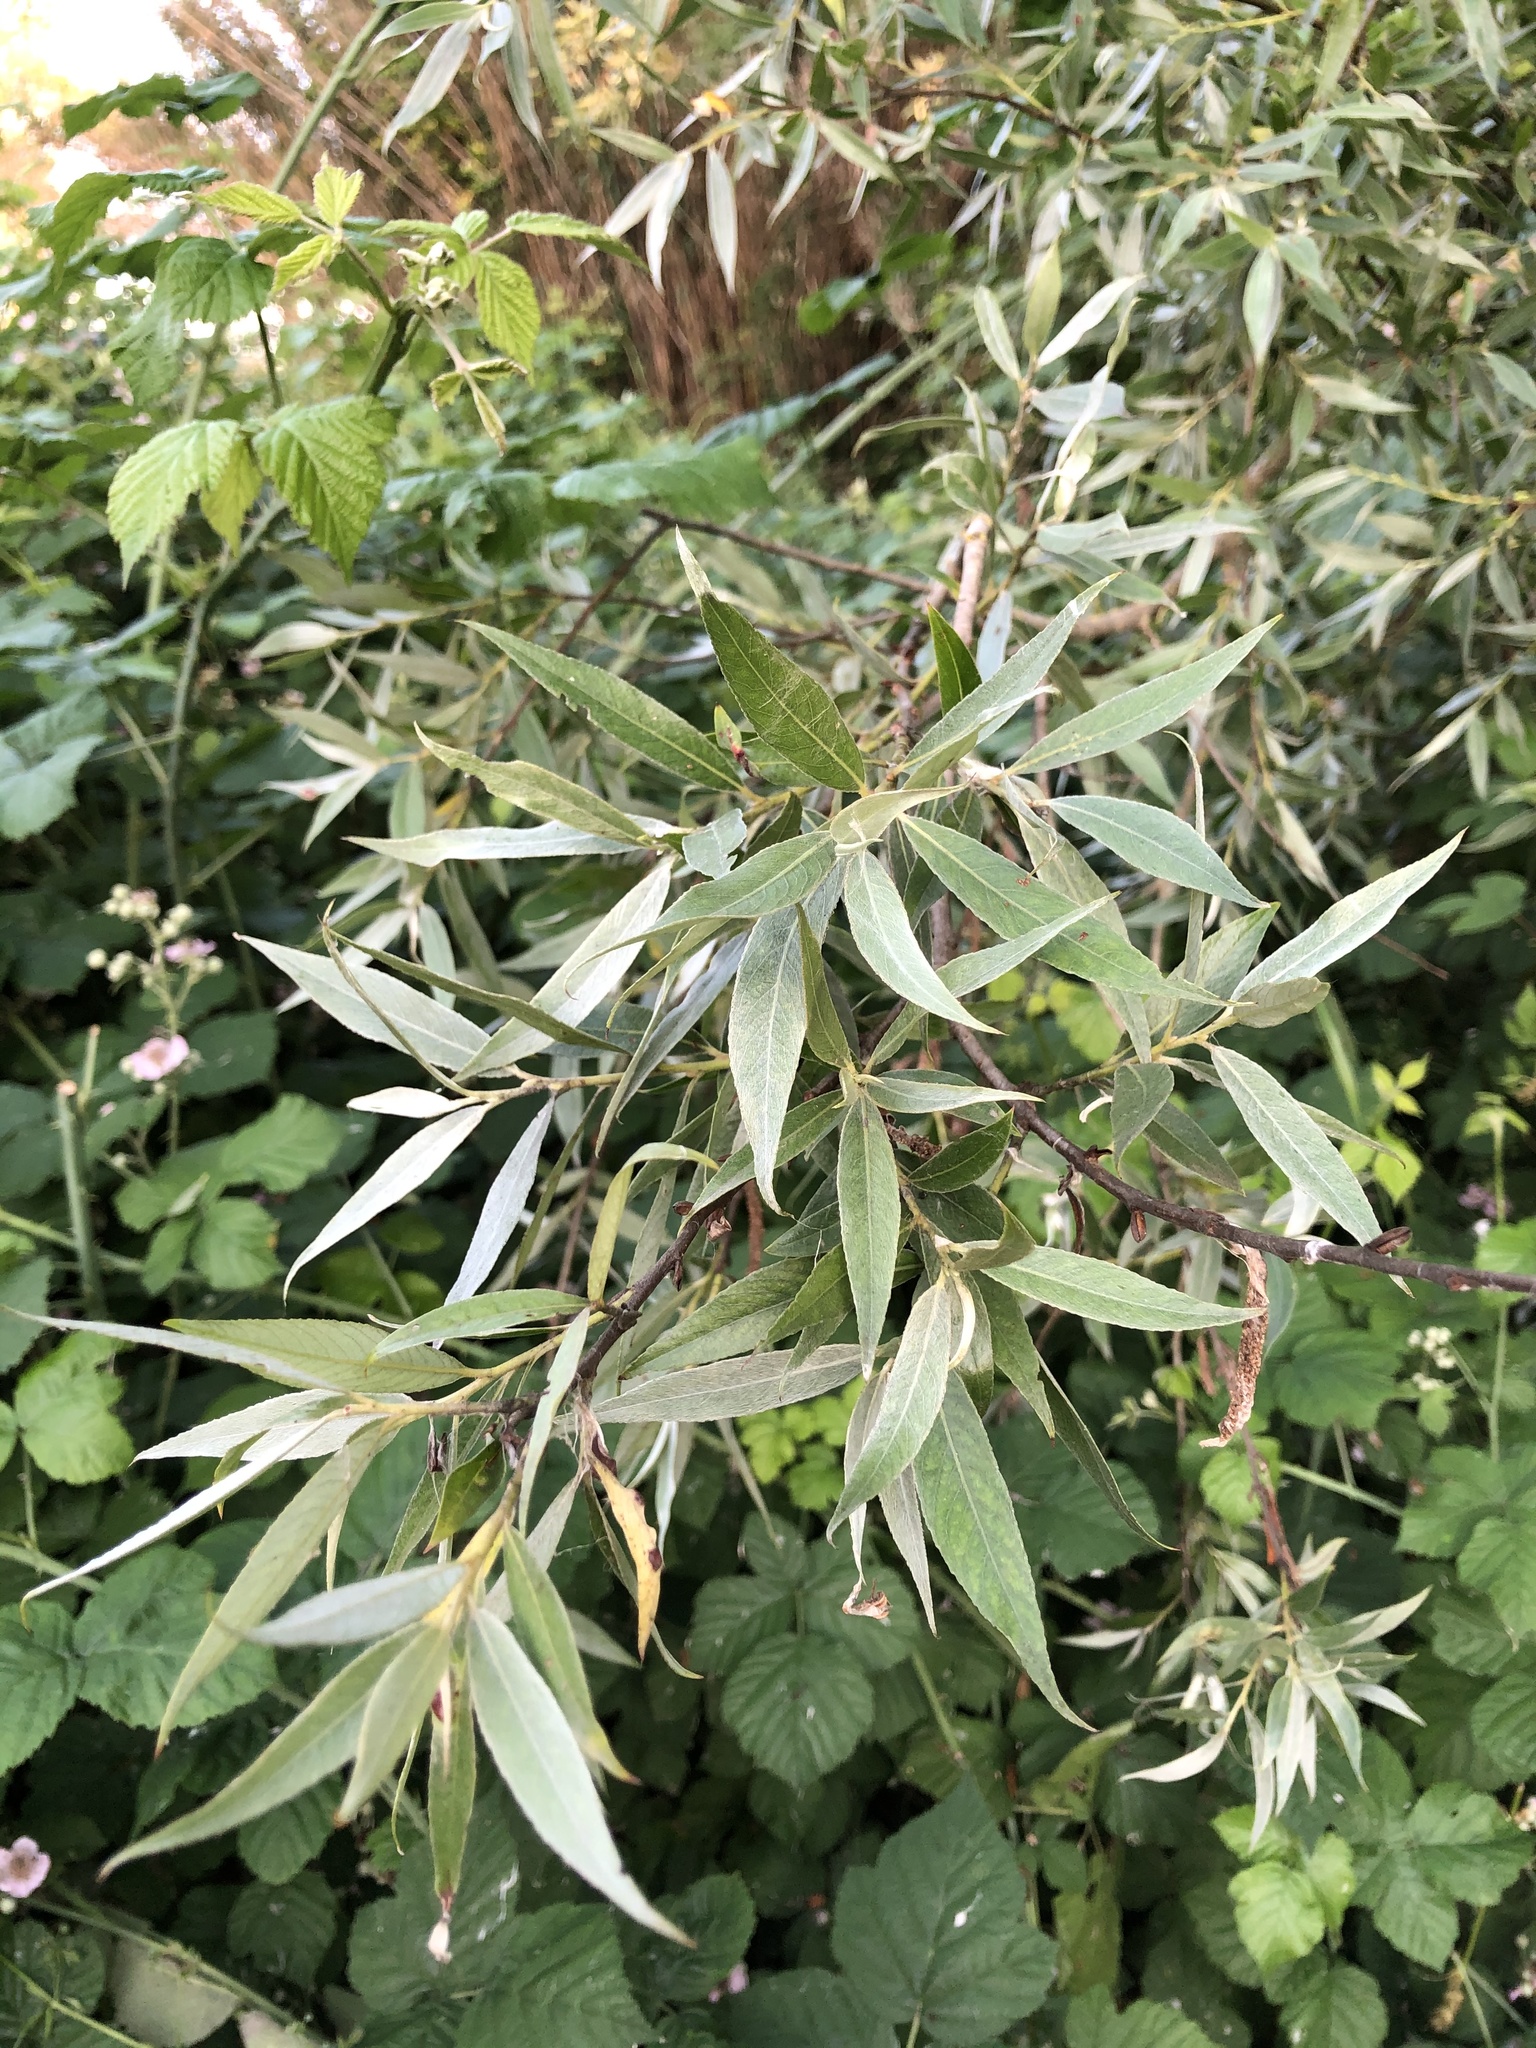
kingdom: Plantae
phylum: Tracheophyta
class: Magnoliopsida
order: Malpighiales
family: Salicaceae
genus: Salix
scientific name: Salix alba
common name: White willow
